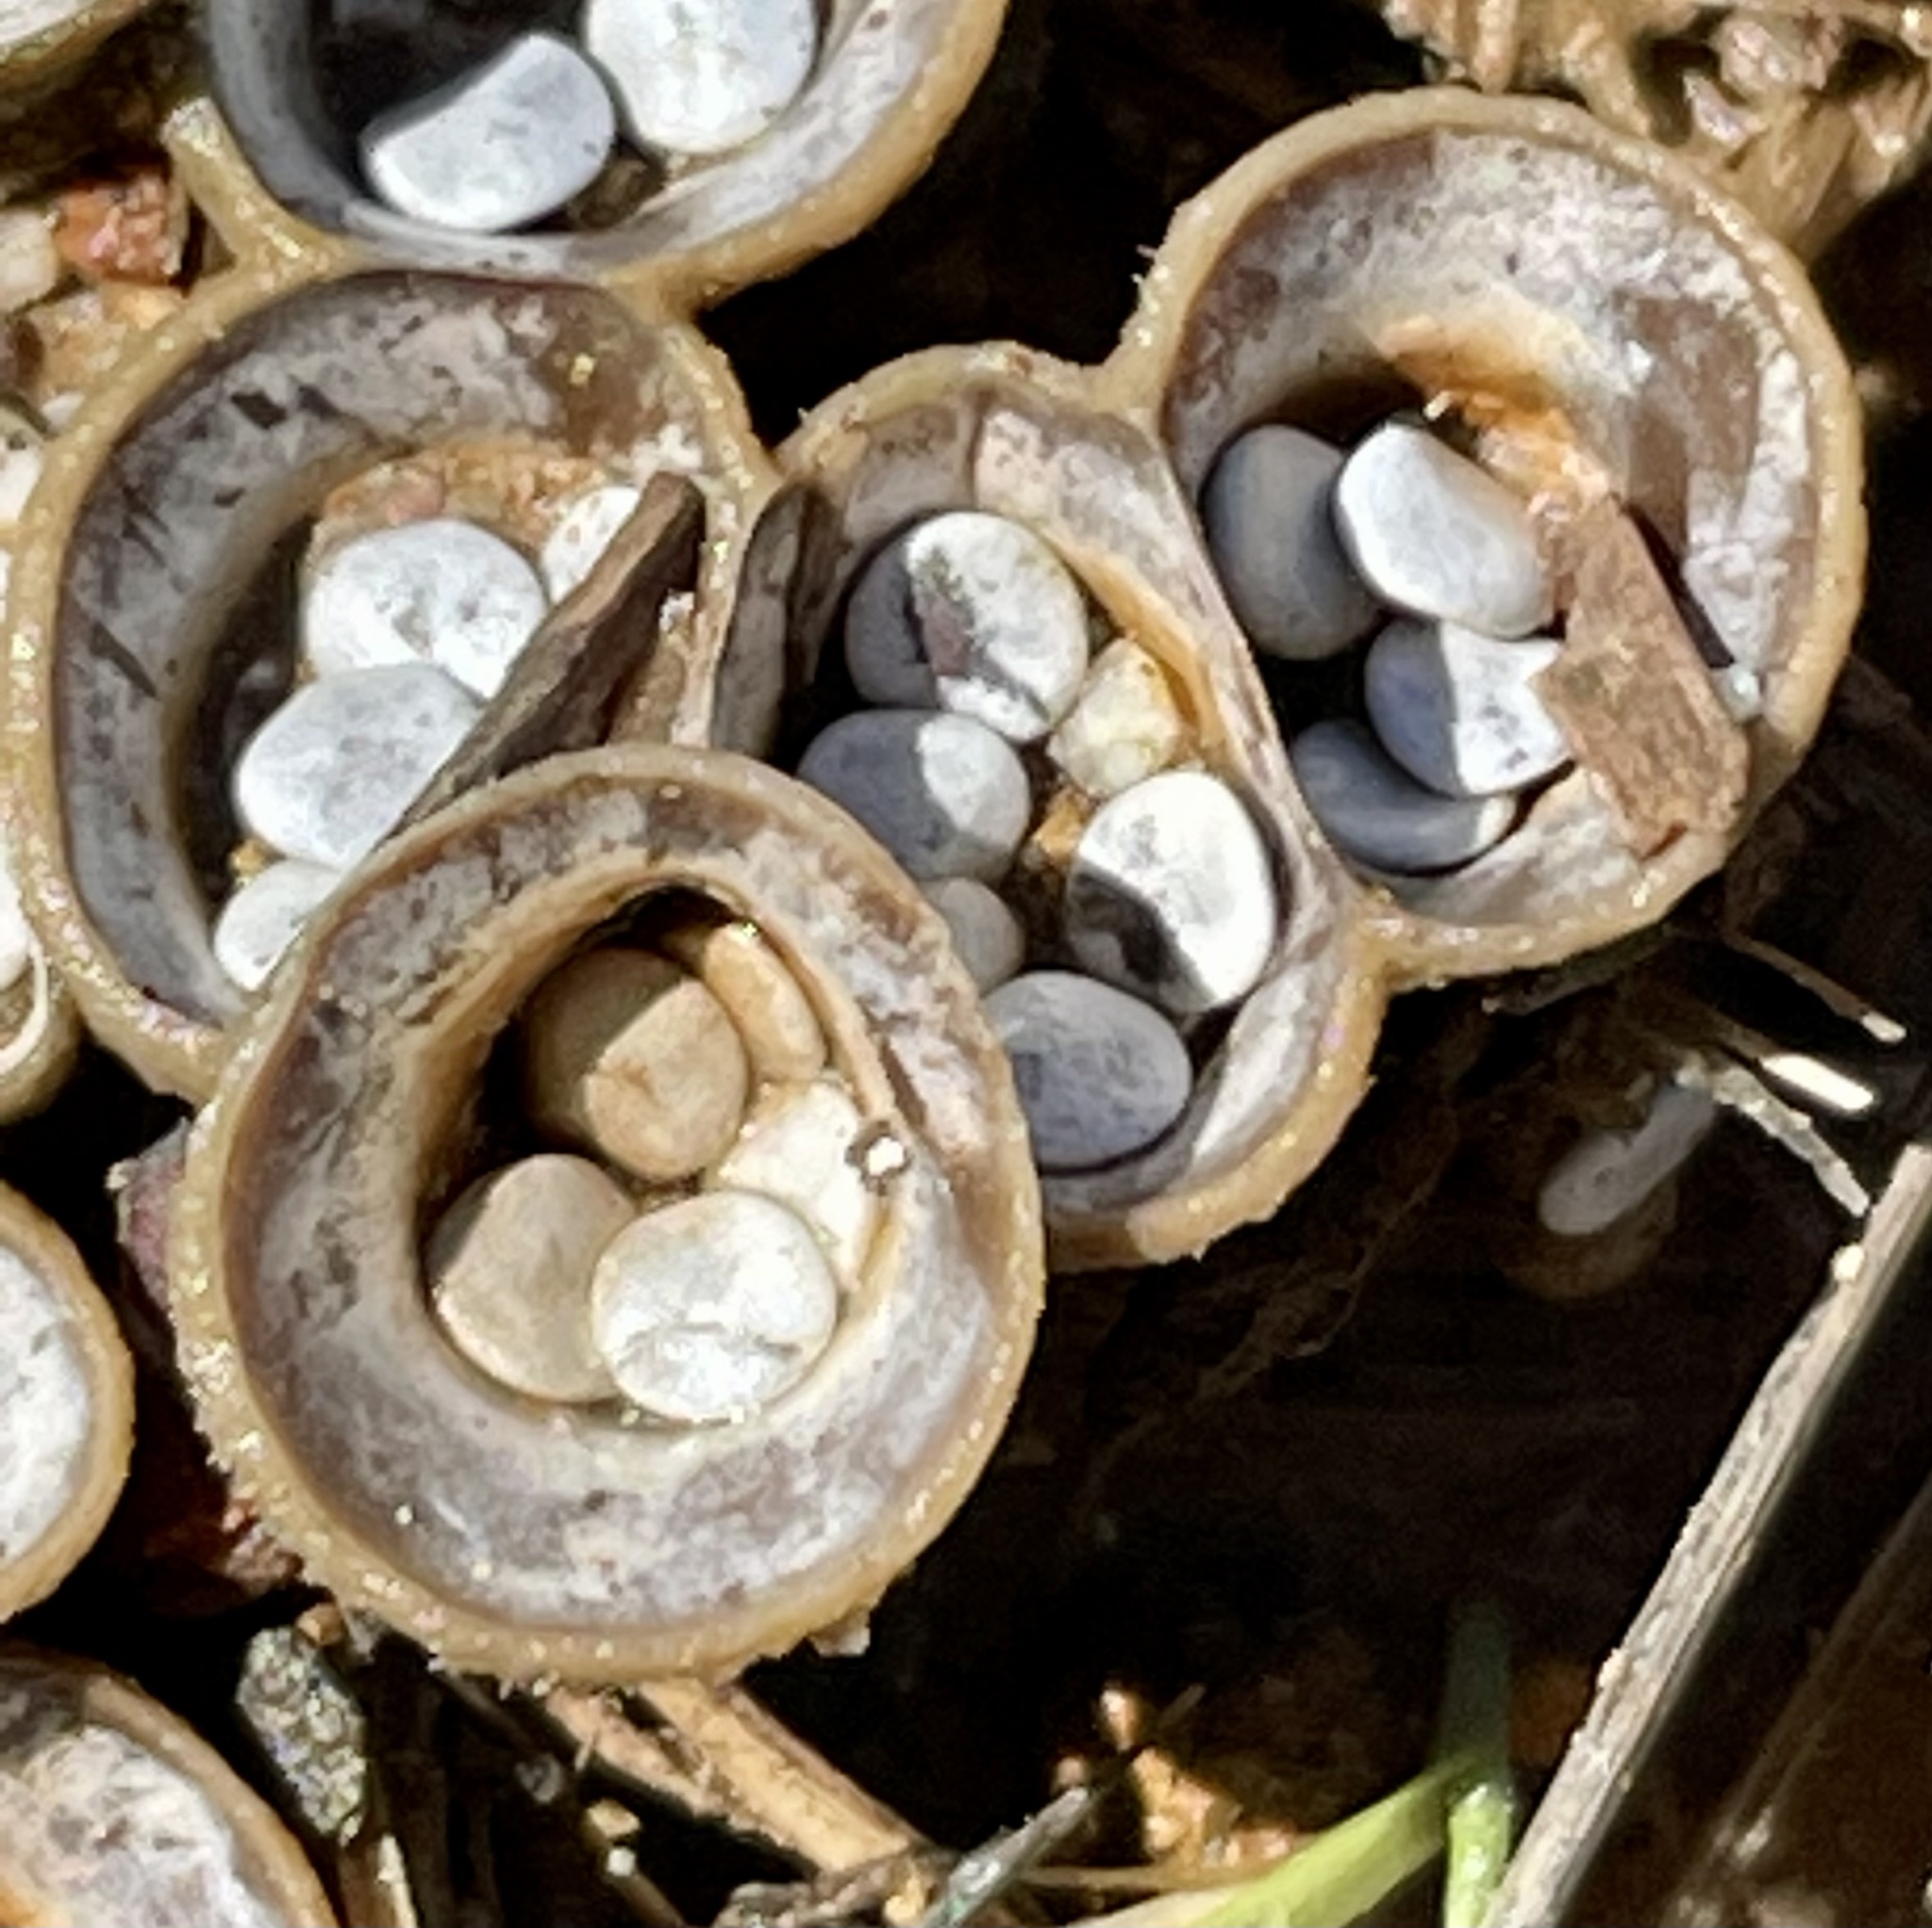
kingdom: Fungi
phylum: Basidiomycota
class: Agaricomycetes
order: Agaricales
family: Agaricaceae
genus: Cyathus
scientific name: Cyathus olla
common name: Field bird's nest
